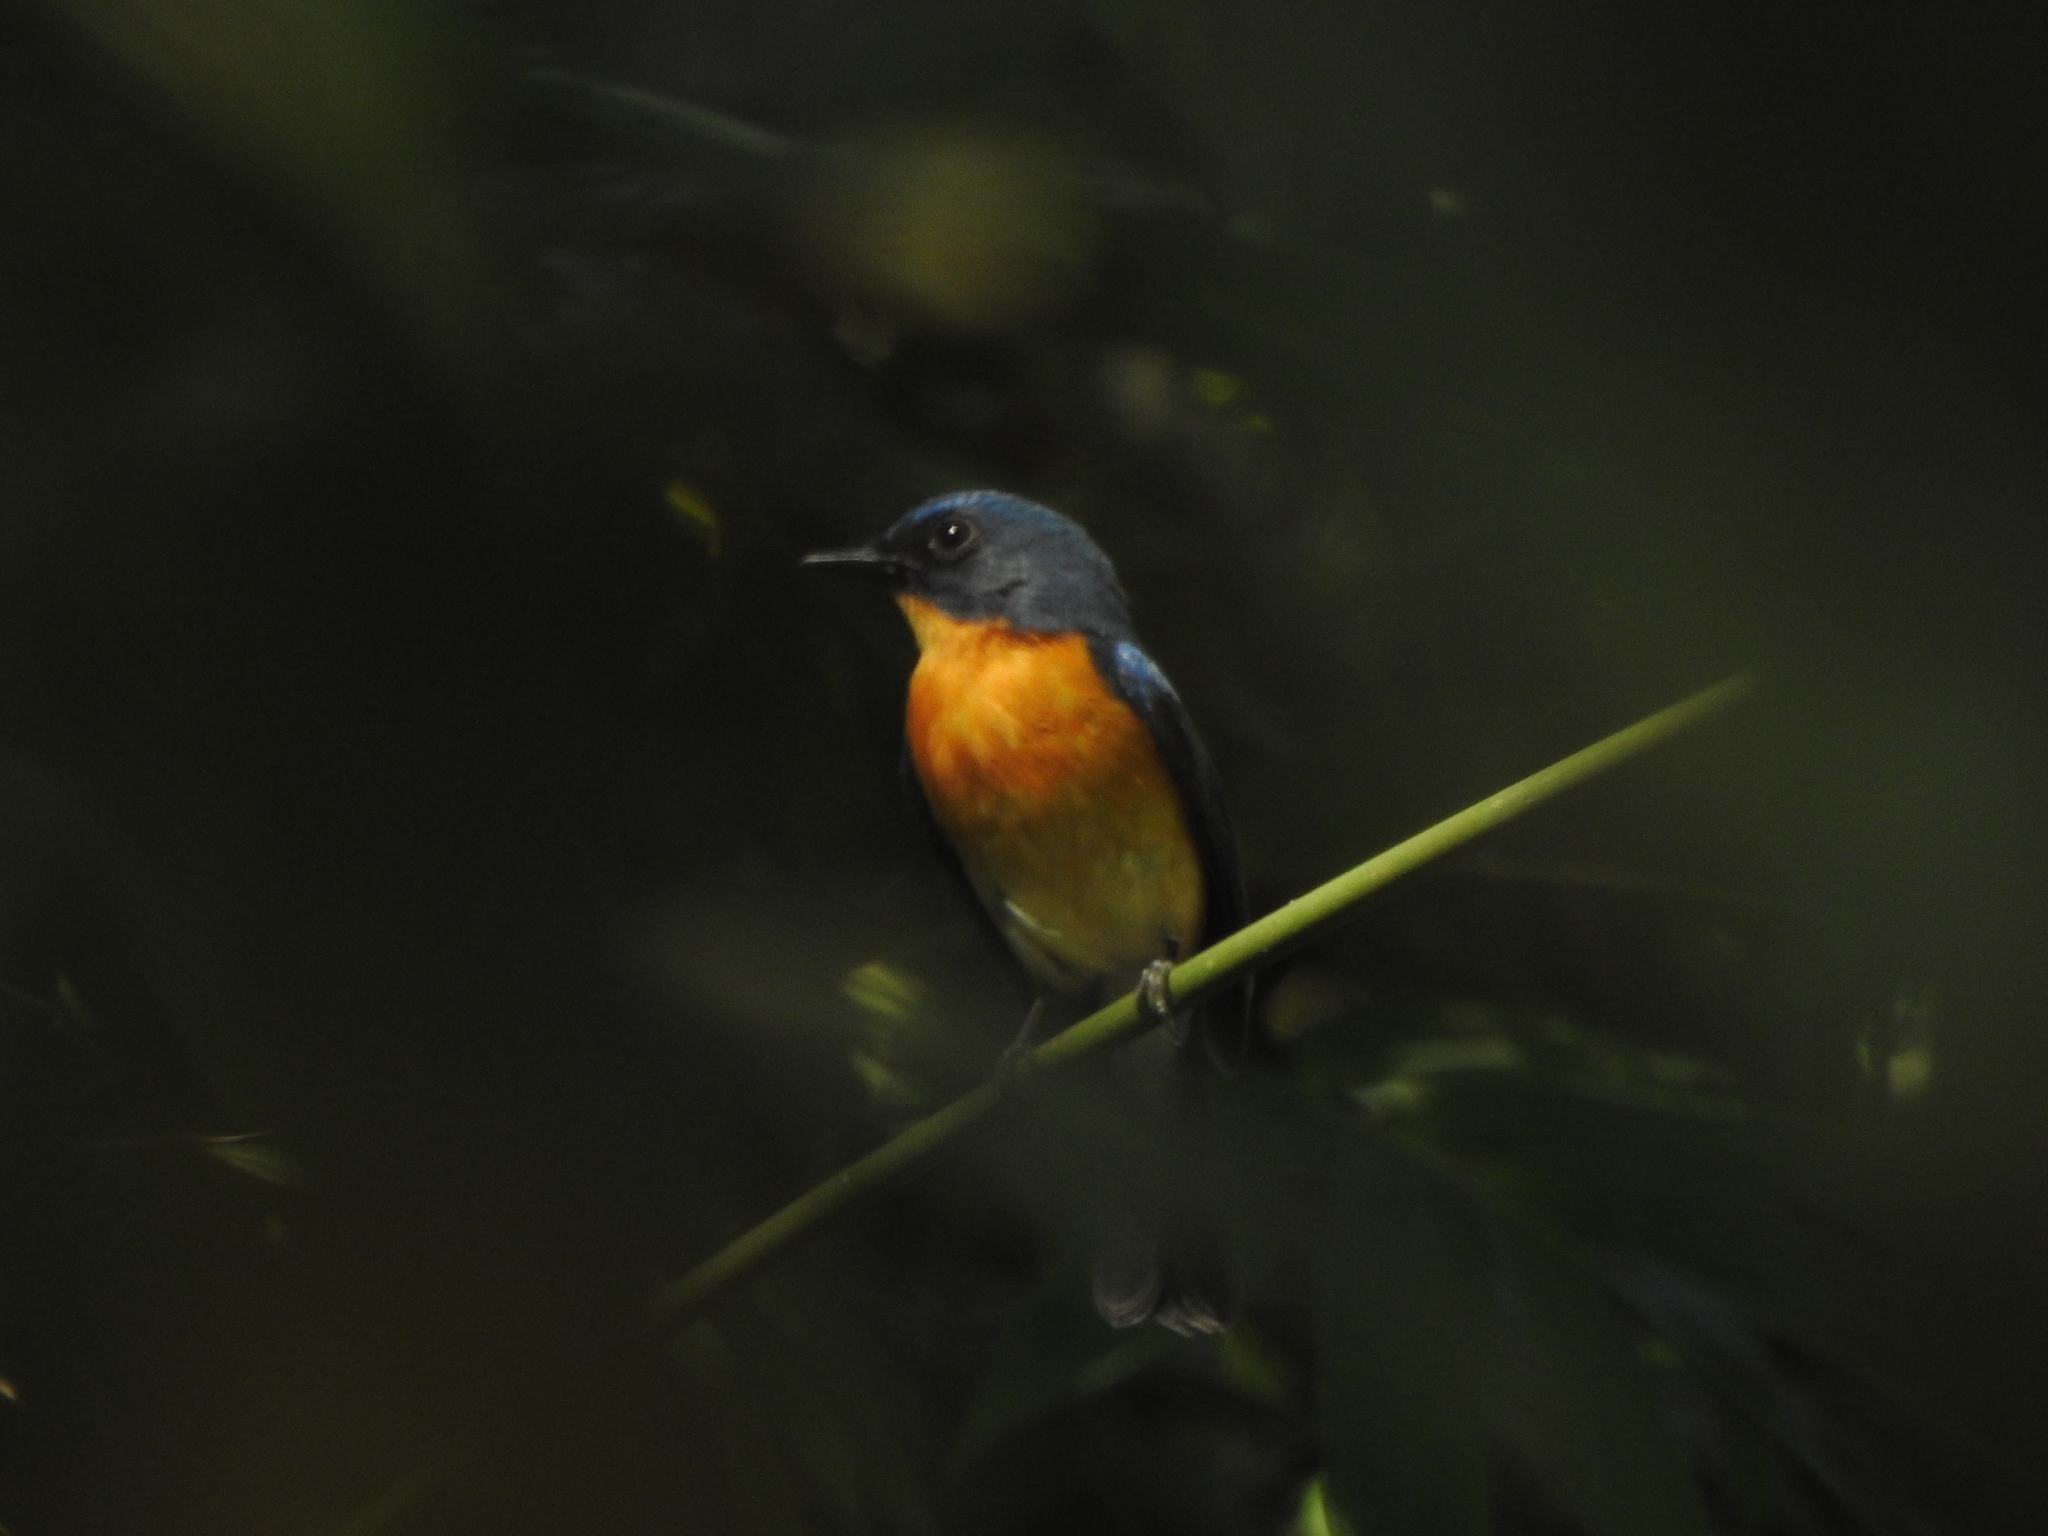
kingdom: Animalia
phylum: Chordata
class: Aves
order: Passeriformes
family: Muscicapidae
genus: Cyornis
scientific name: Cyornis tickelliae
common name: Tickell's blue flycatcher
